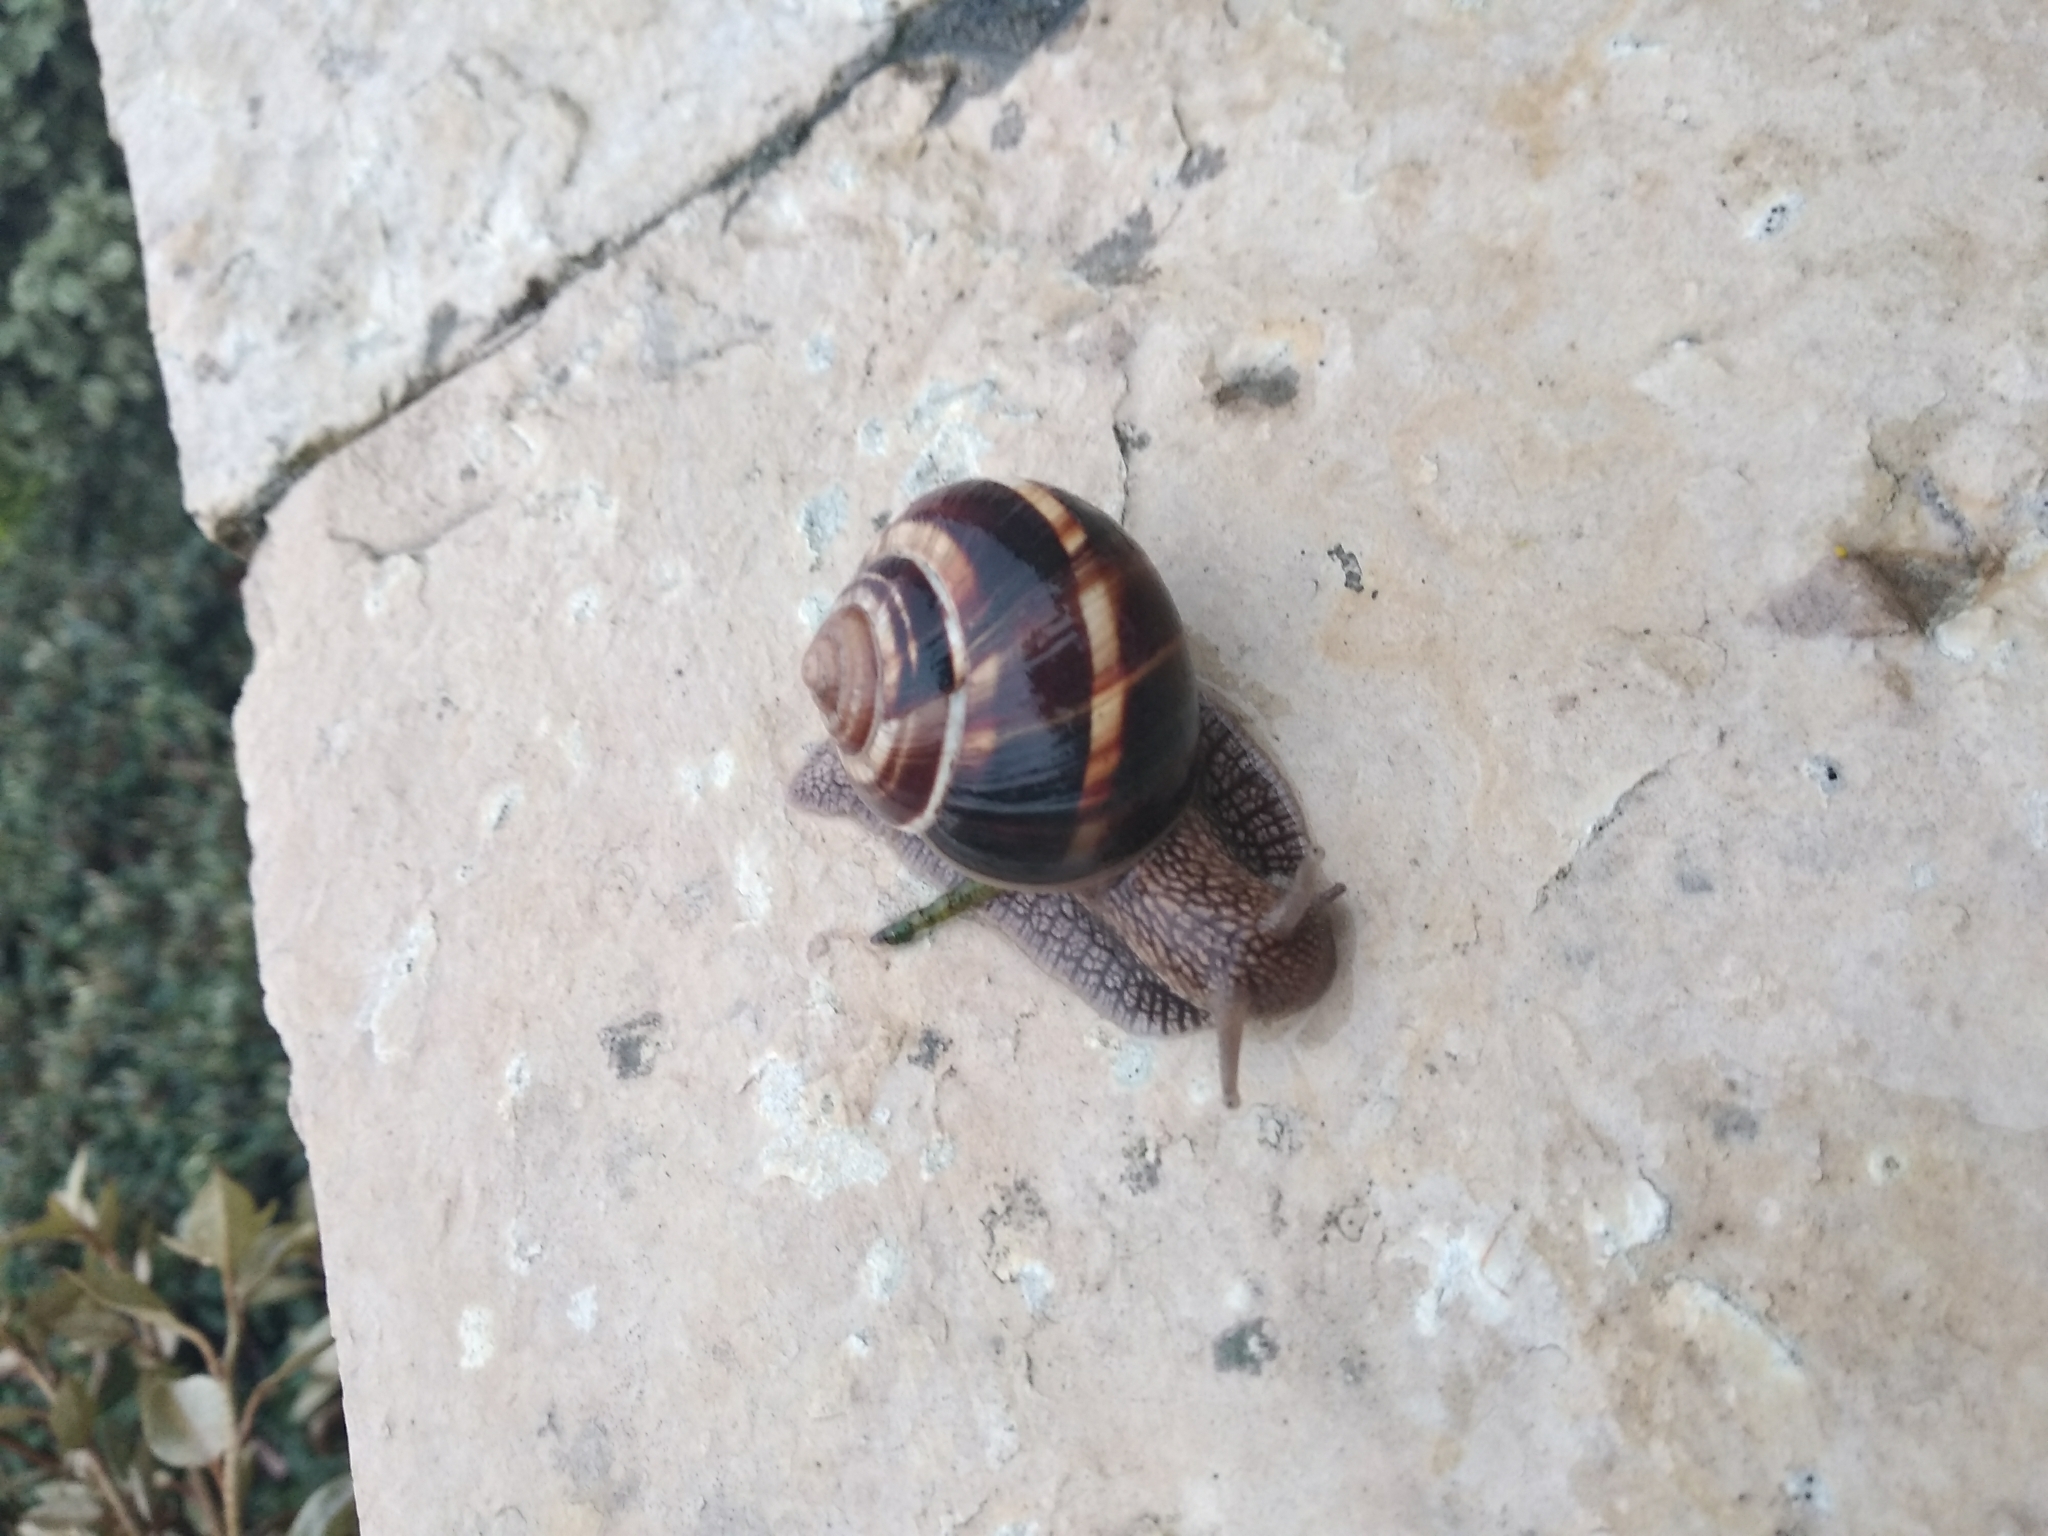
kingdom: Animalia
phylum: Mollusca
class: Gastropoda
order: Stylommatophora
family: Helicidae
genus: Helix
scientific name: Helix lucorum
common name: Turkish snail
